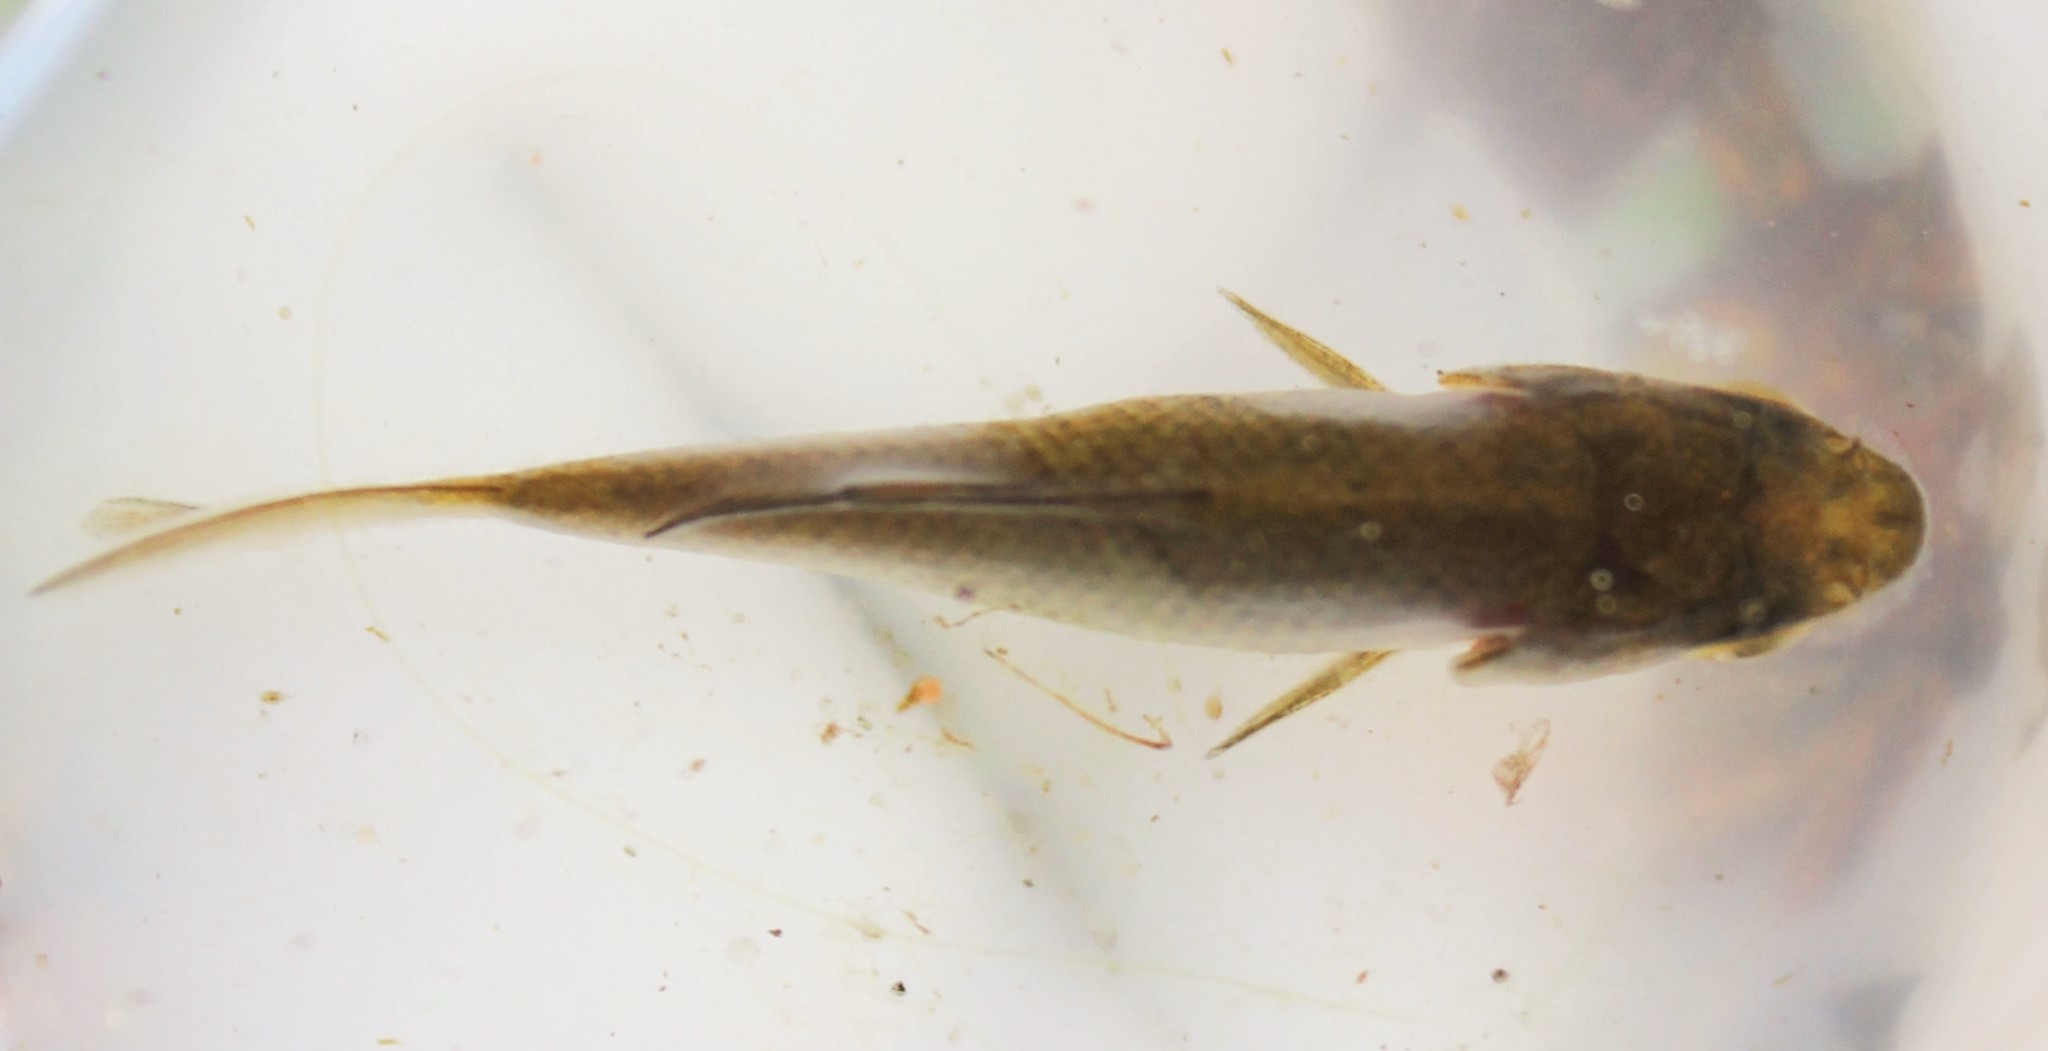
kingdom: Animalia
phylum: Chordata
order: Cypriniformes
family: Leuciscidae
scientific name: Leuciscidae
